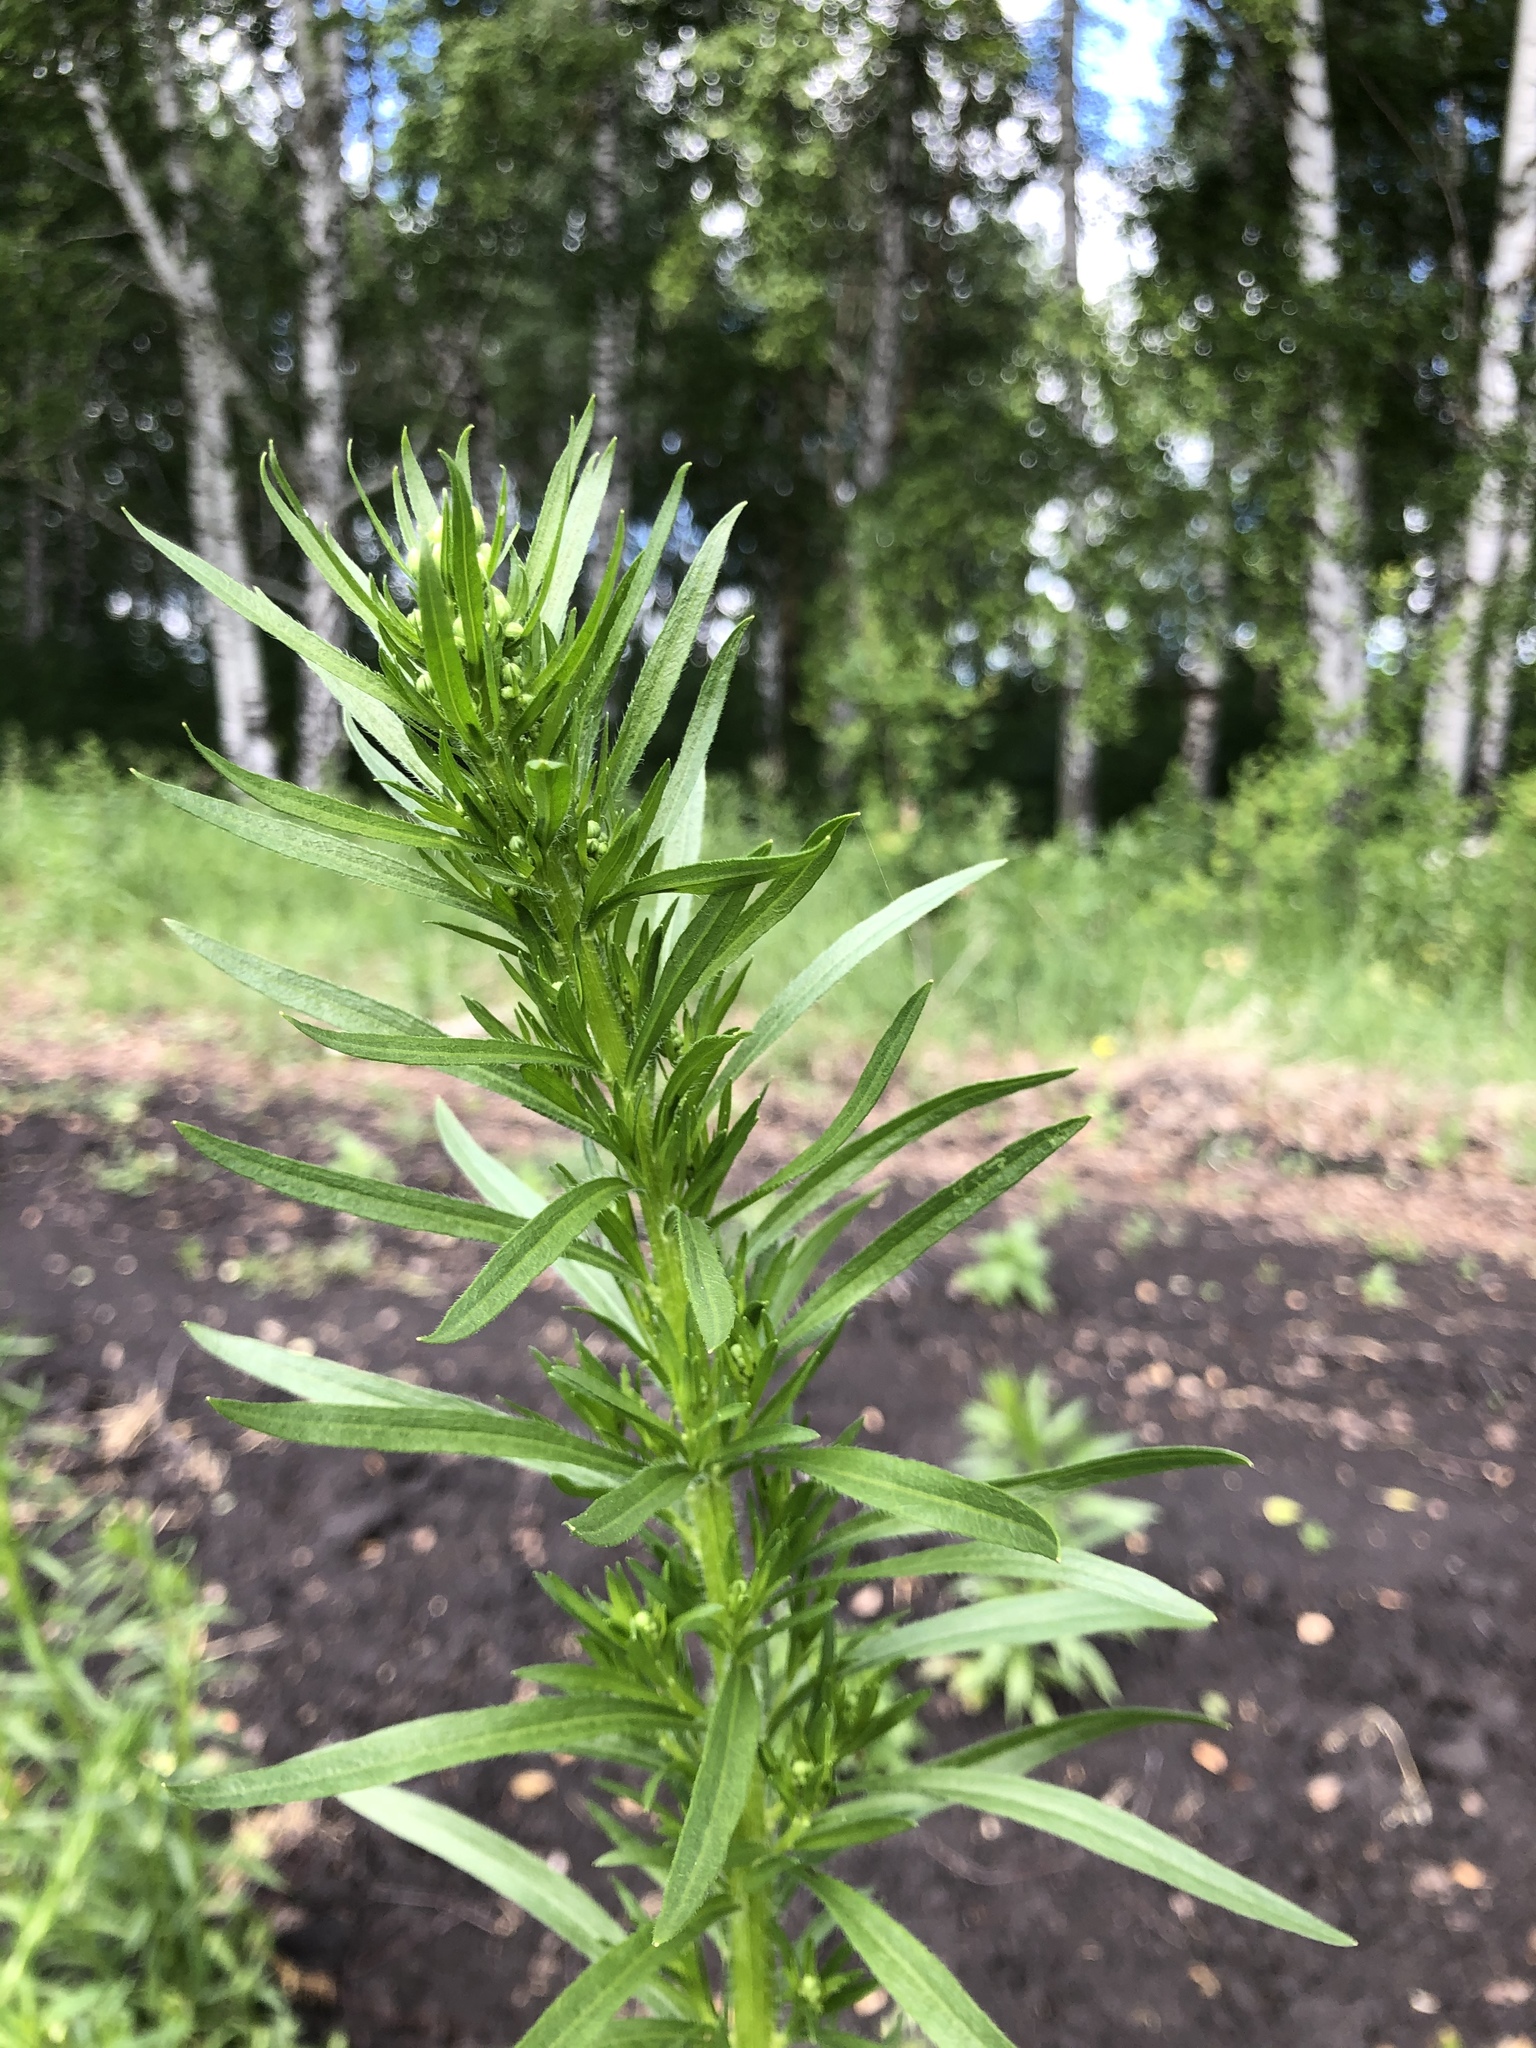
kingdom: Plantae
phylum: Tracheophyta
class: Magnoliopsida
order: Asterales
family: Asteraceae
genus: Erigeron
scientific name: Erigeron canadensis
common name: Canadian fleabane
